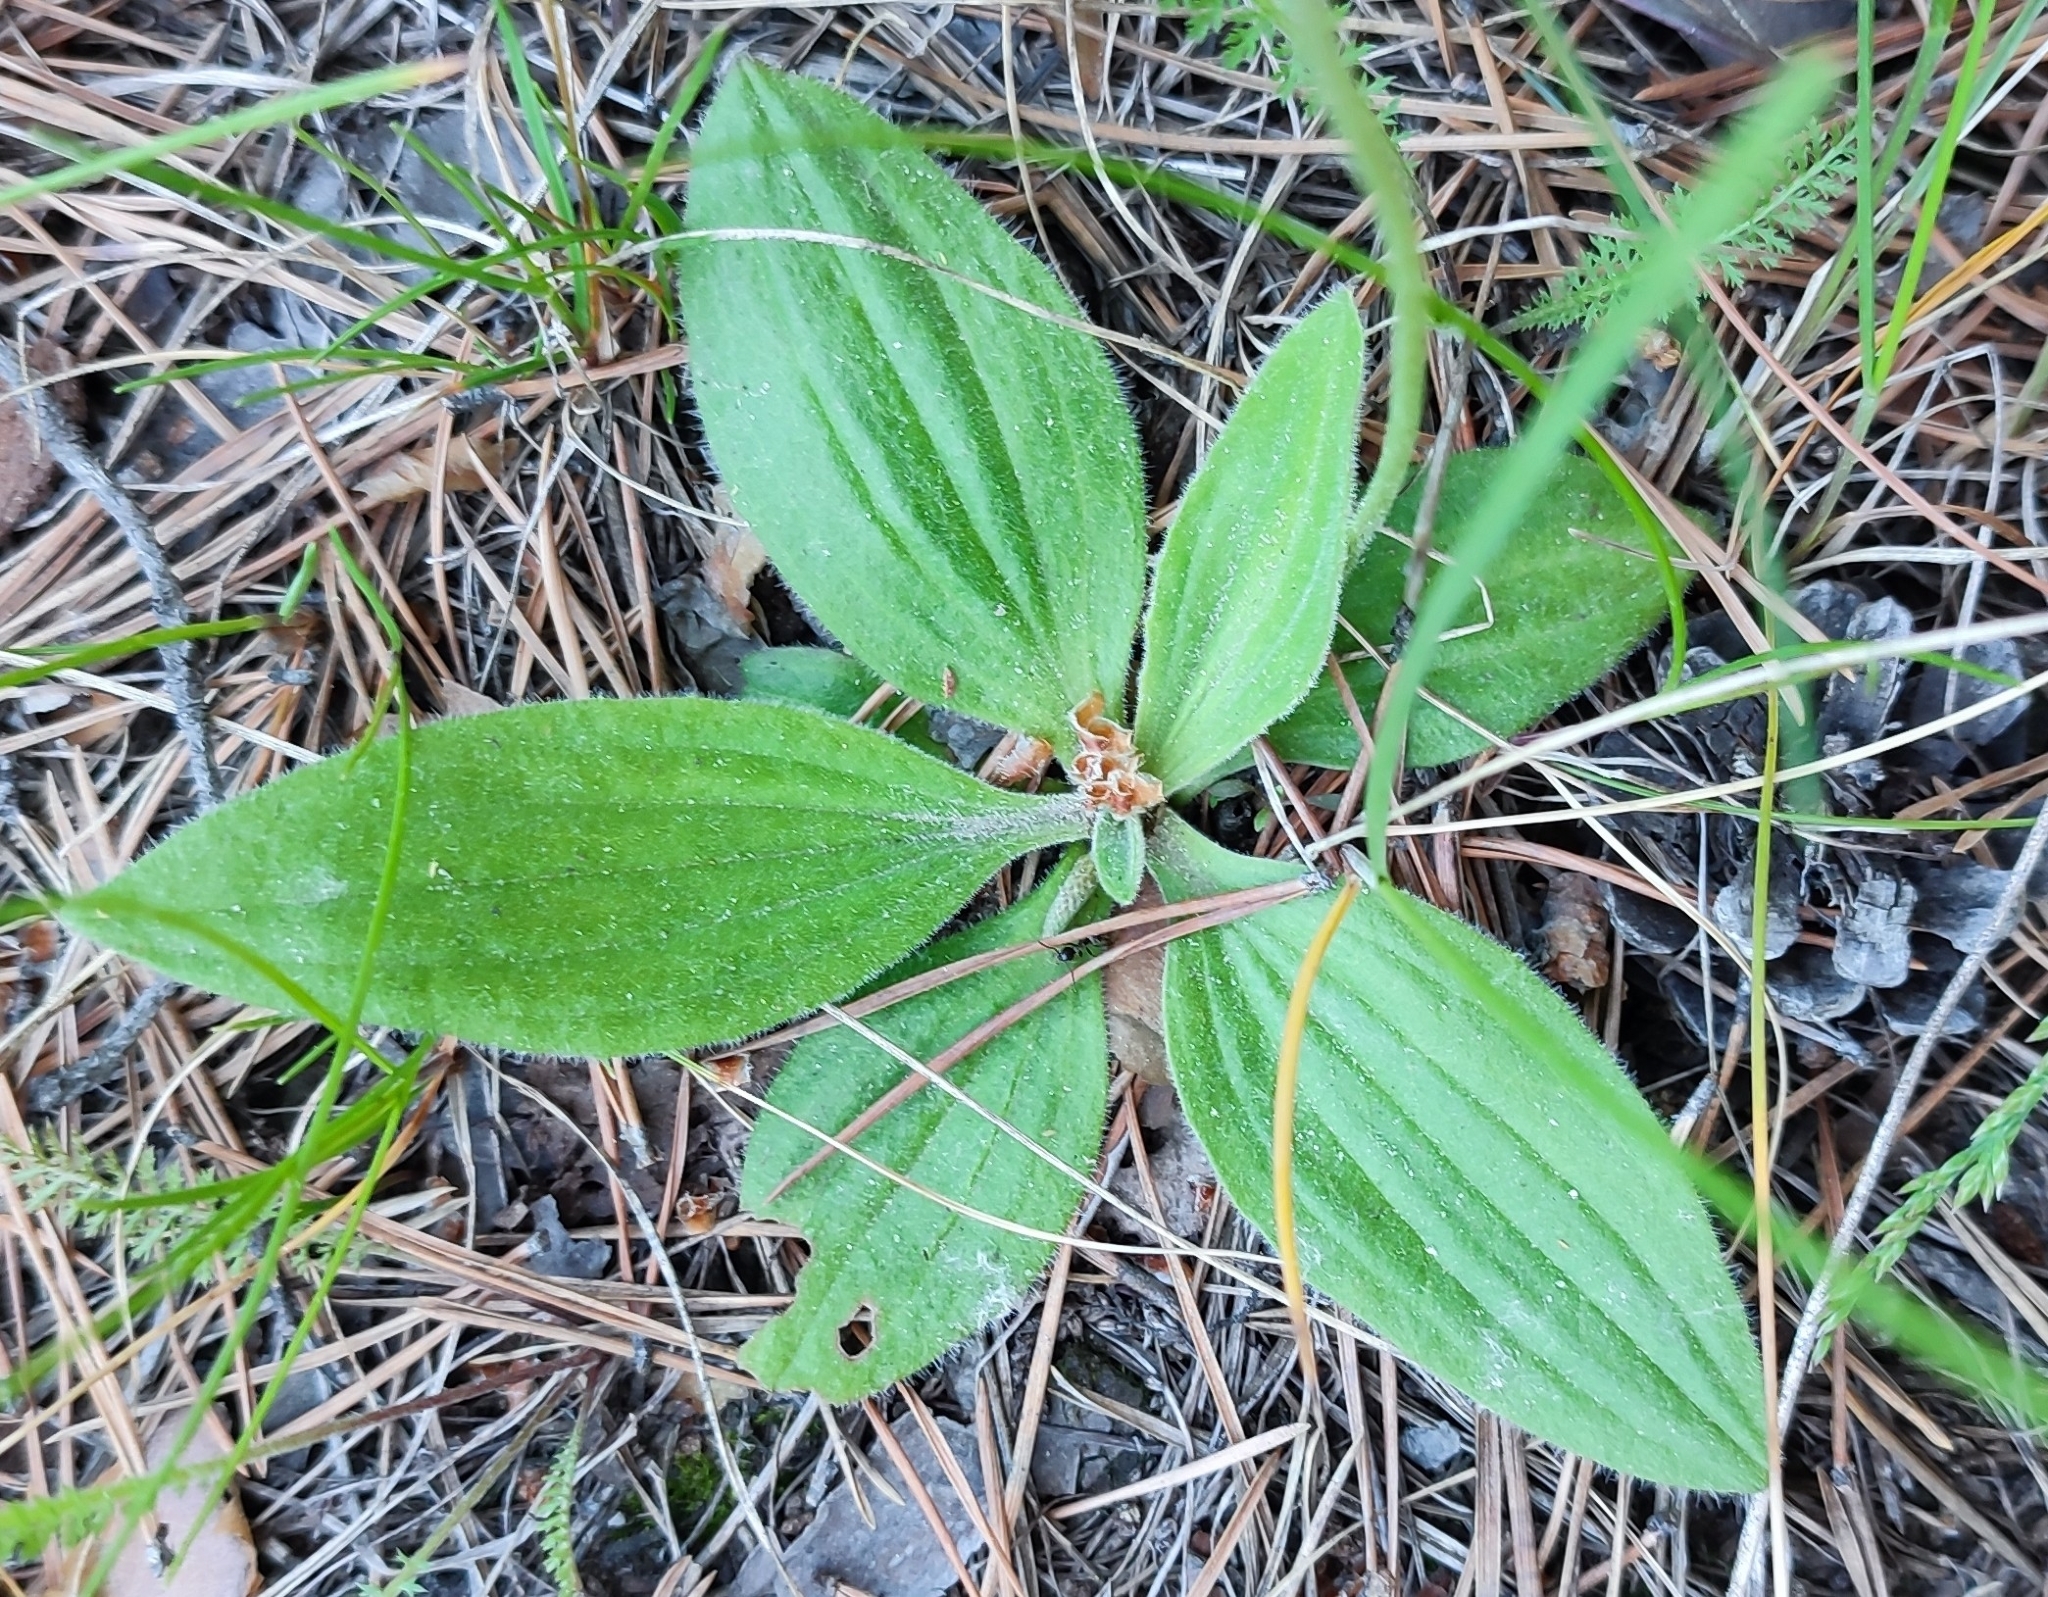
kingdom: Plantae
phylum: Tracheophyta
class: Magnoliopsida
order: Lamiales
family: Plantaginaceae
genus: Plantago
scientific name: Plantago media
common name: Hoary plantain
